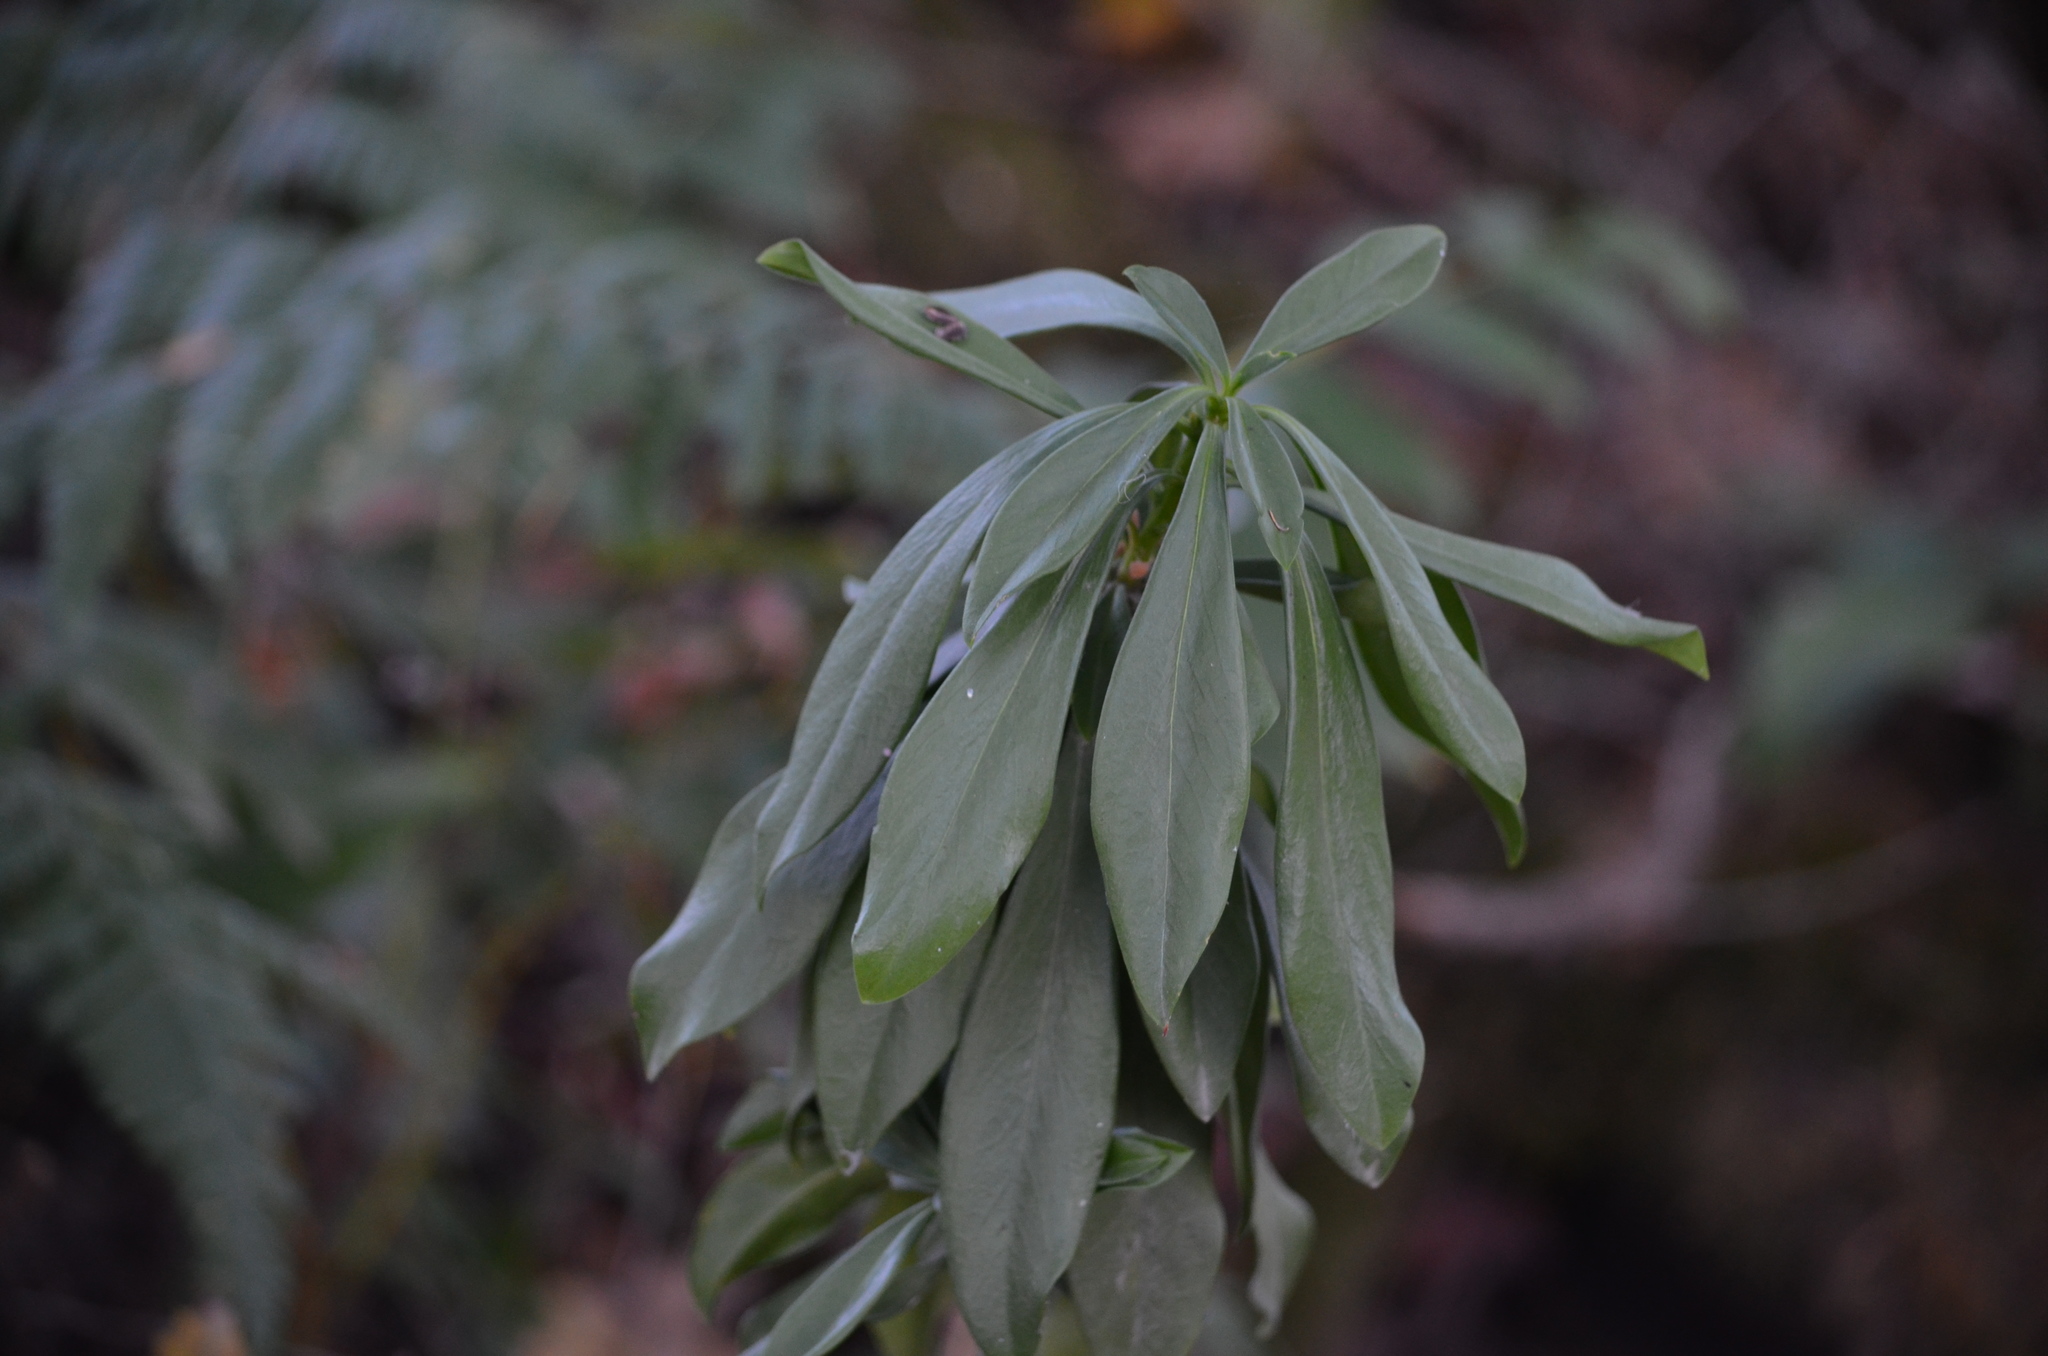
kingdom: Plantae
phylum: Tracheophyta
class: Magnoliopsida
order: Malvales
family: Thymelaeaceae
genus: Daphne
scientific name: Daphne laureola
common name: Spurge-laurel
